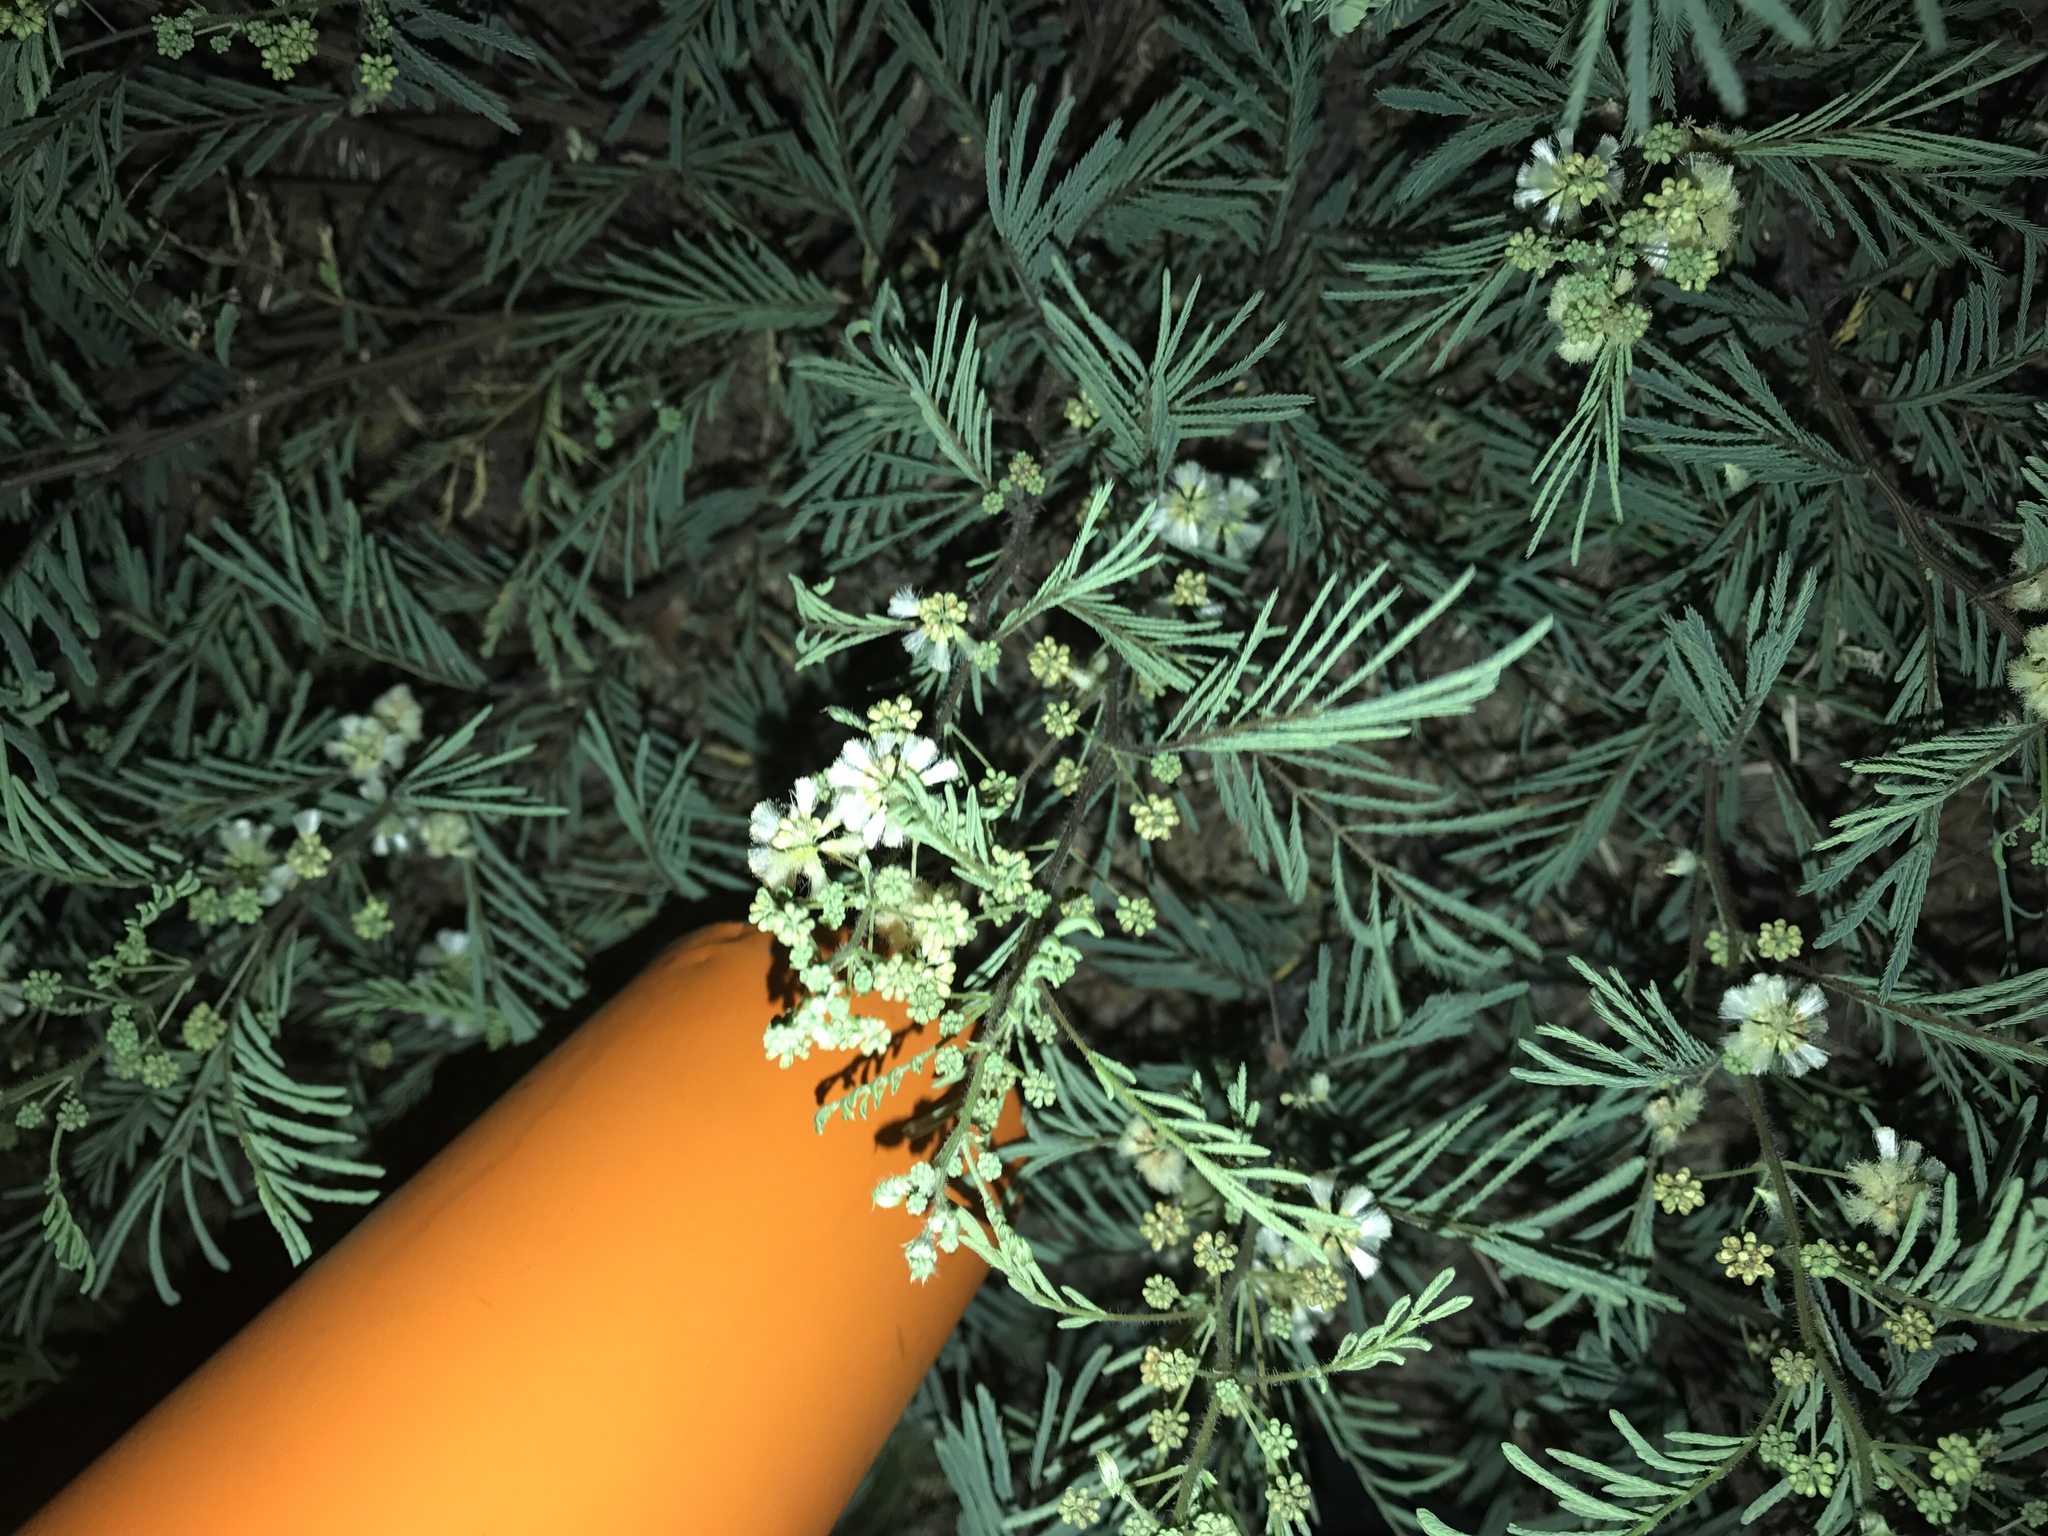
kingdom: Plantae
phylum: Tracheophyta
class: Magnoliopsida
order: Fabales
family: Fabaceae
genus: Acaciella
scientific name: Acaciella angustissima
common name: Prairie acacia
